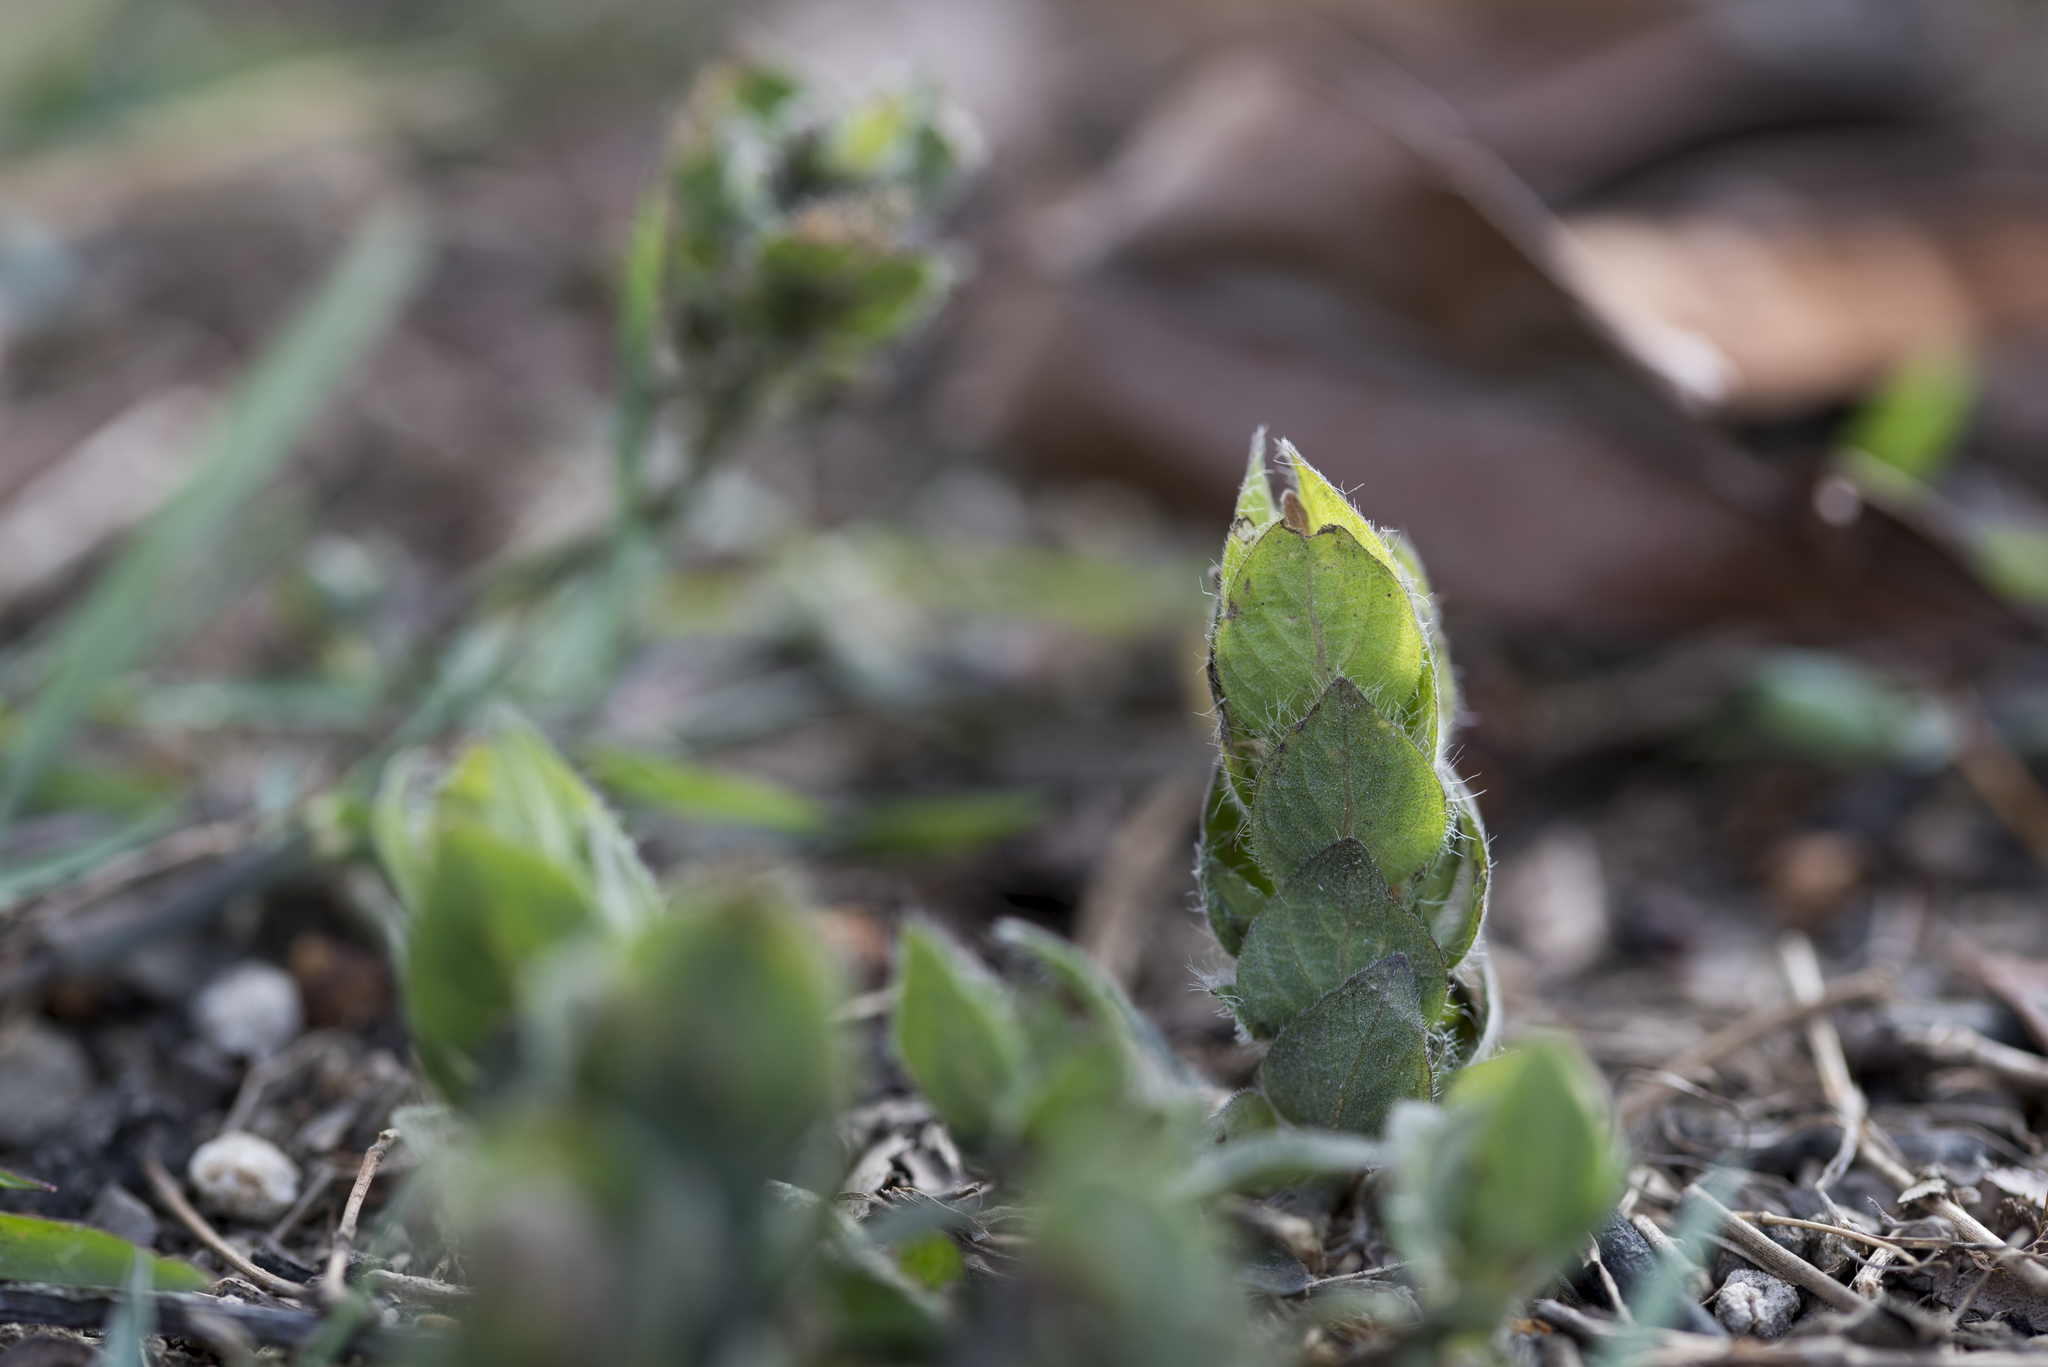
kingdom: Plantae
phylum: Tracheophyta
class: Magnoliopsida
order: Lamiales
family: Acanthaceae
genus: Ruellia
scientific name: Ruellia blechum
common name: Browne's blechum
